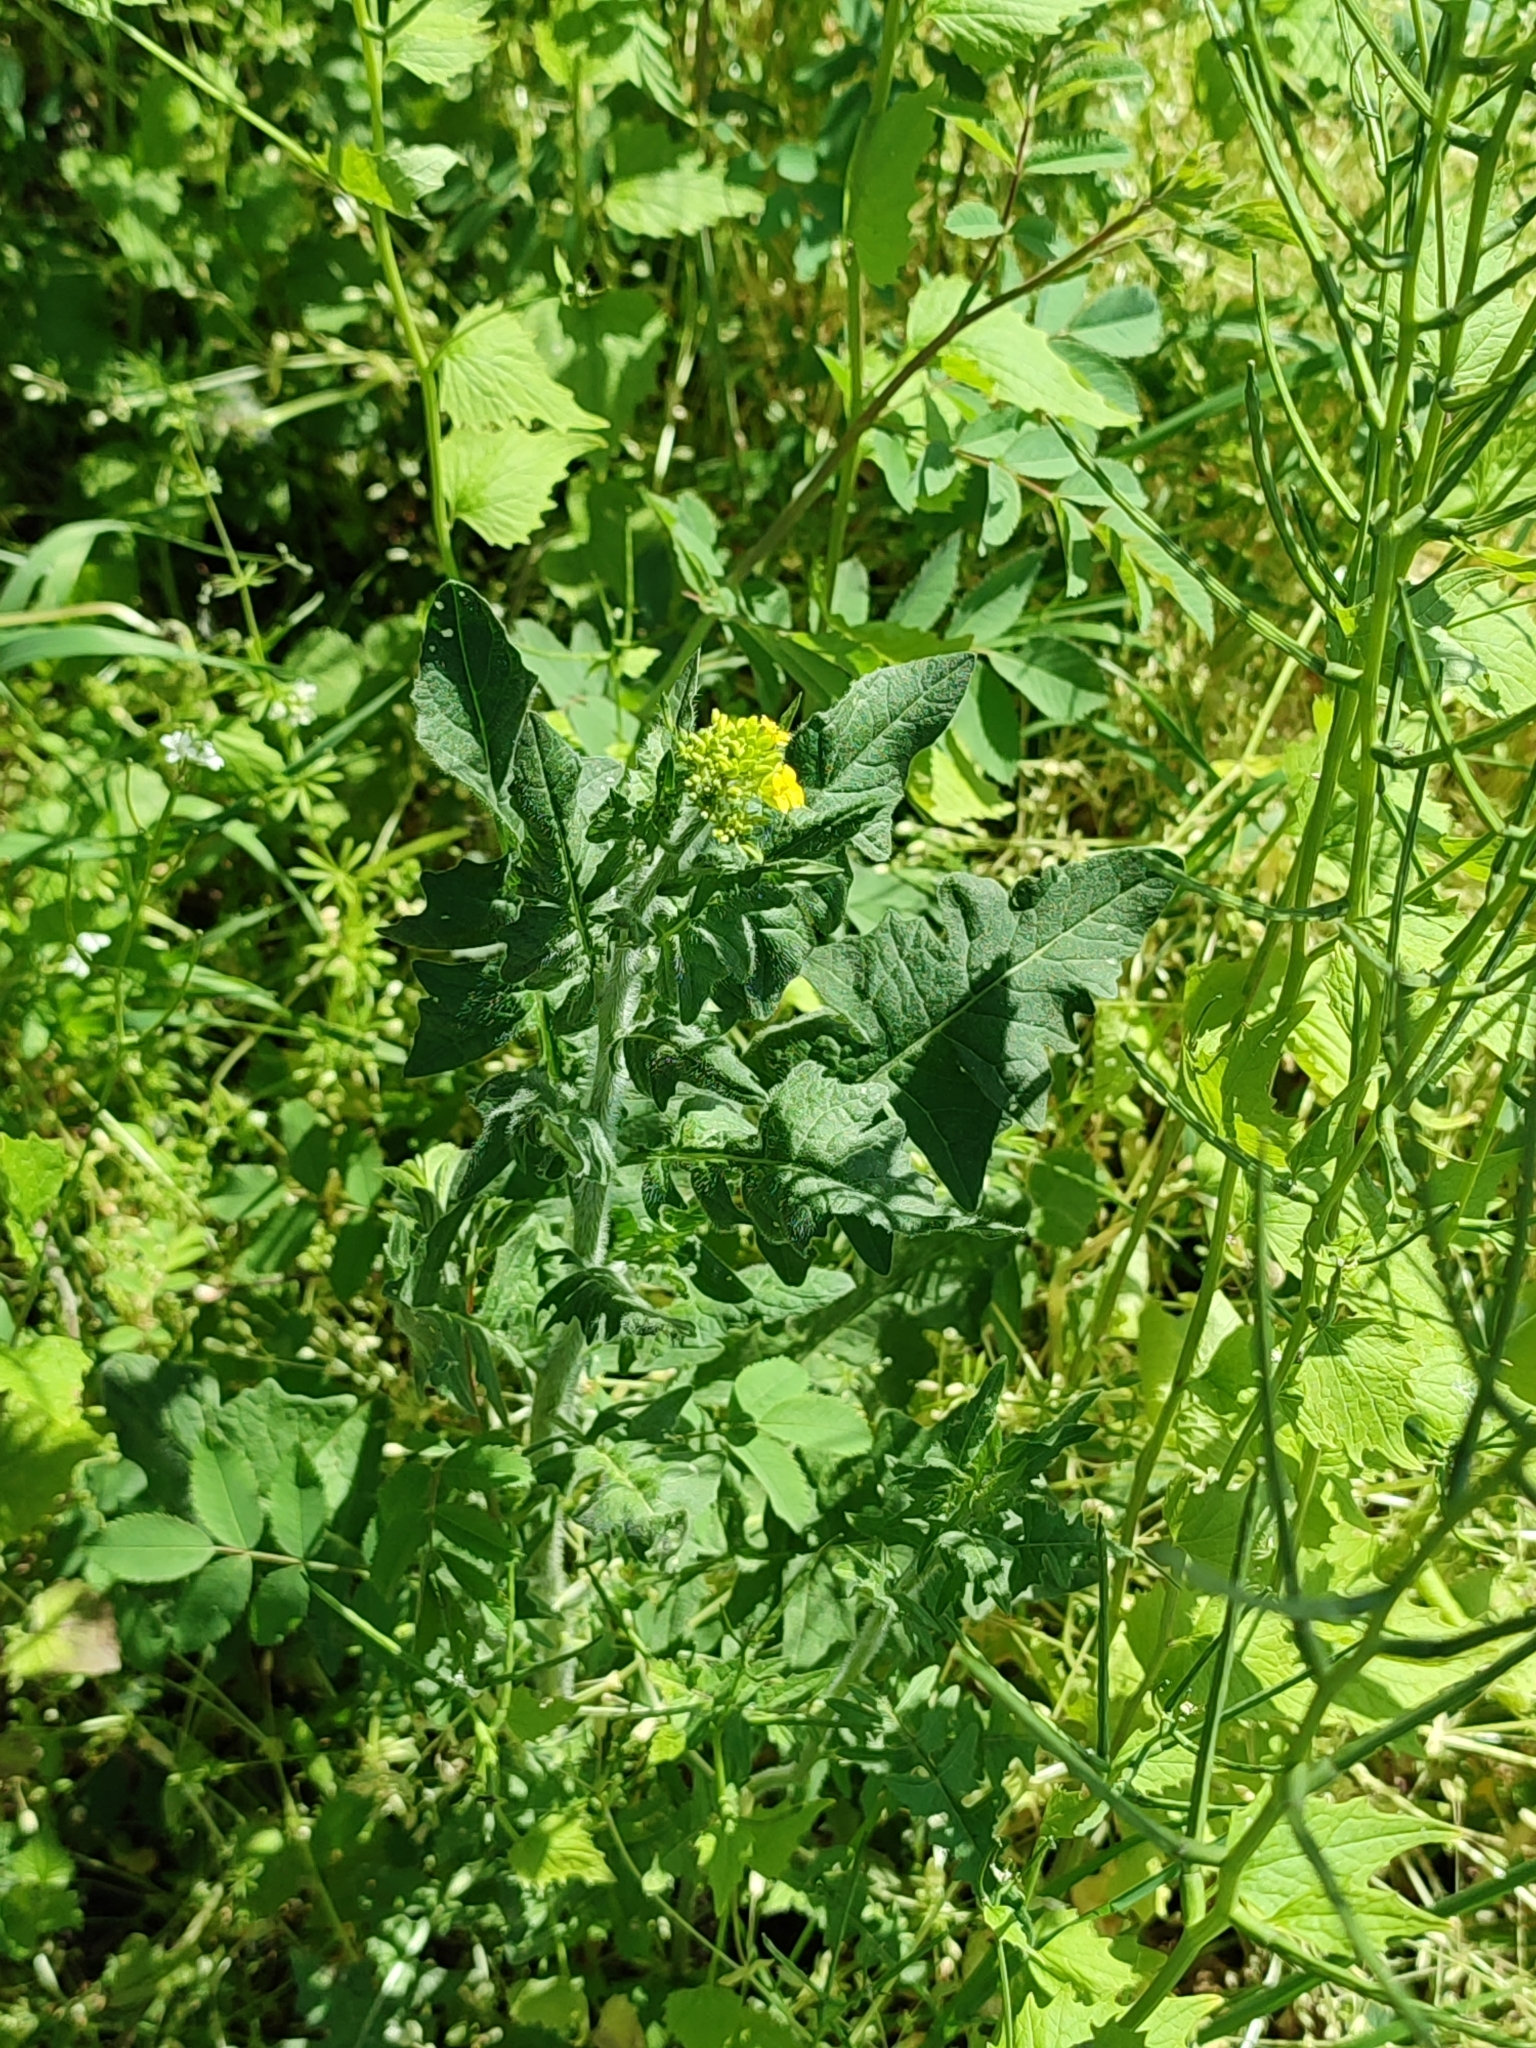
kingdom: Plantae
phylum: Tracheophyta
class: Magnoliopsida
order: Brassicales
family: Brassicaceae
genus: Sisymbrium
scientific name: Sisymbrium loeselii
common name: False london-rocket
